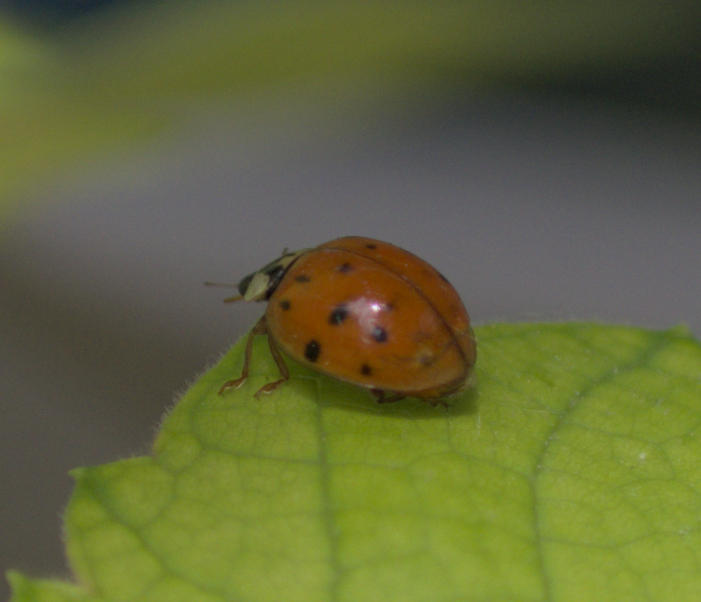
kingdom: Animalia
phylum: Arthropoda
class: Insecta
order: Coleoptera
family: Coccinellidae
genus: Harmonia
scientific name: Harmonia axyridis
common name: Harlequin ladybird
